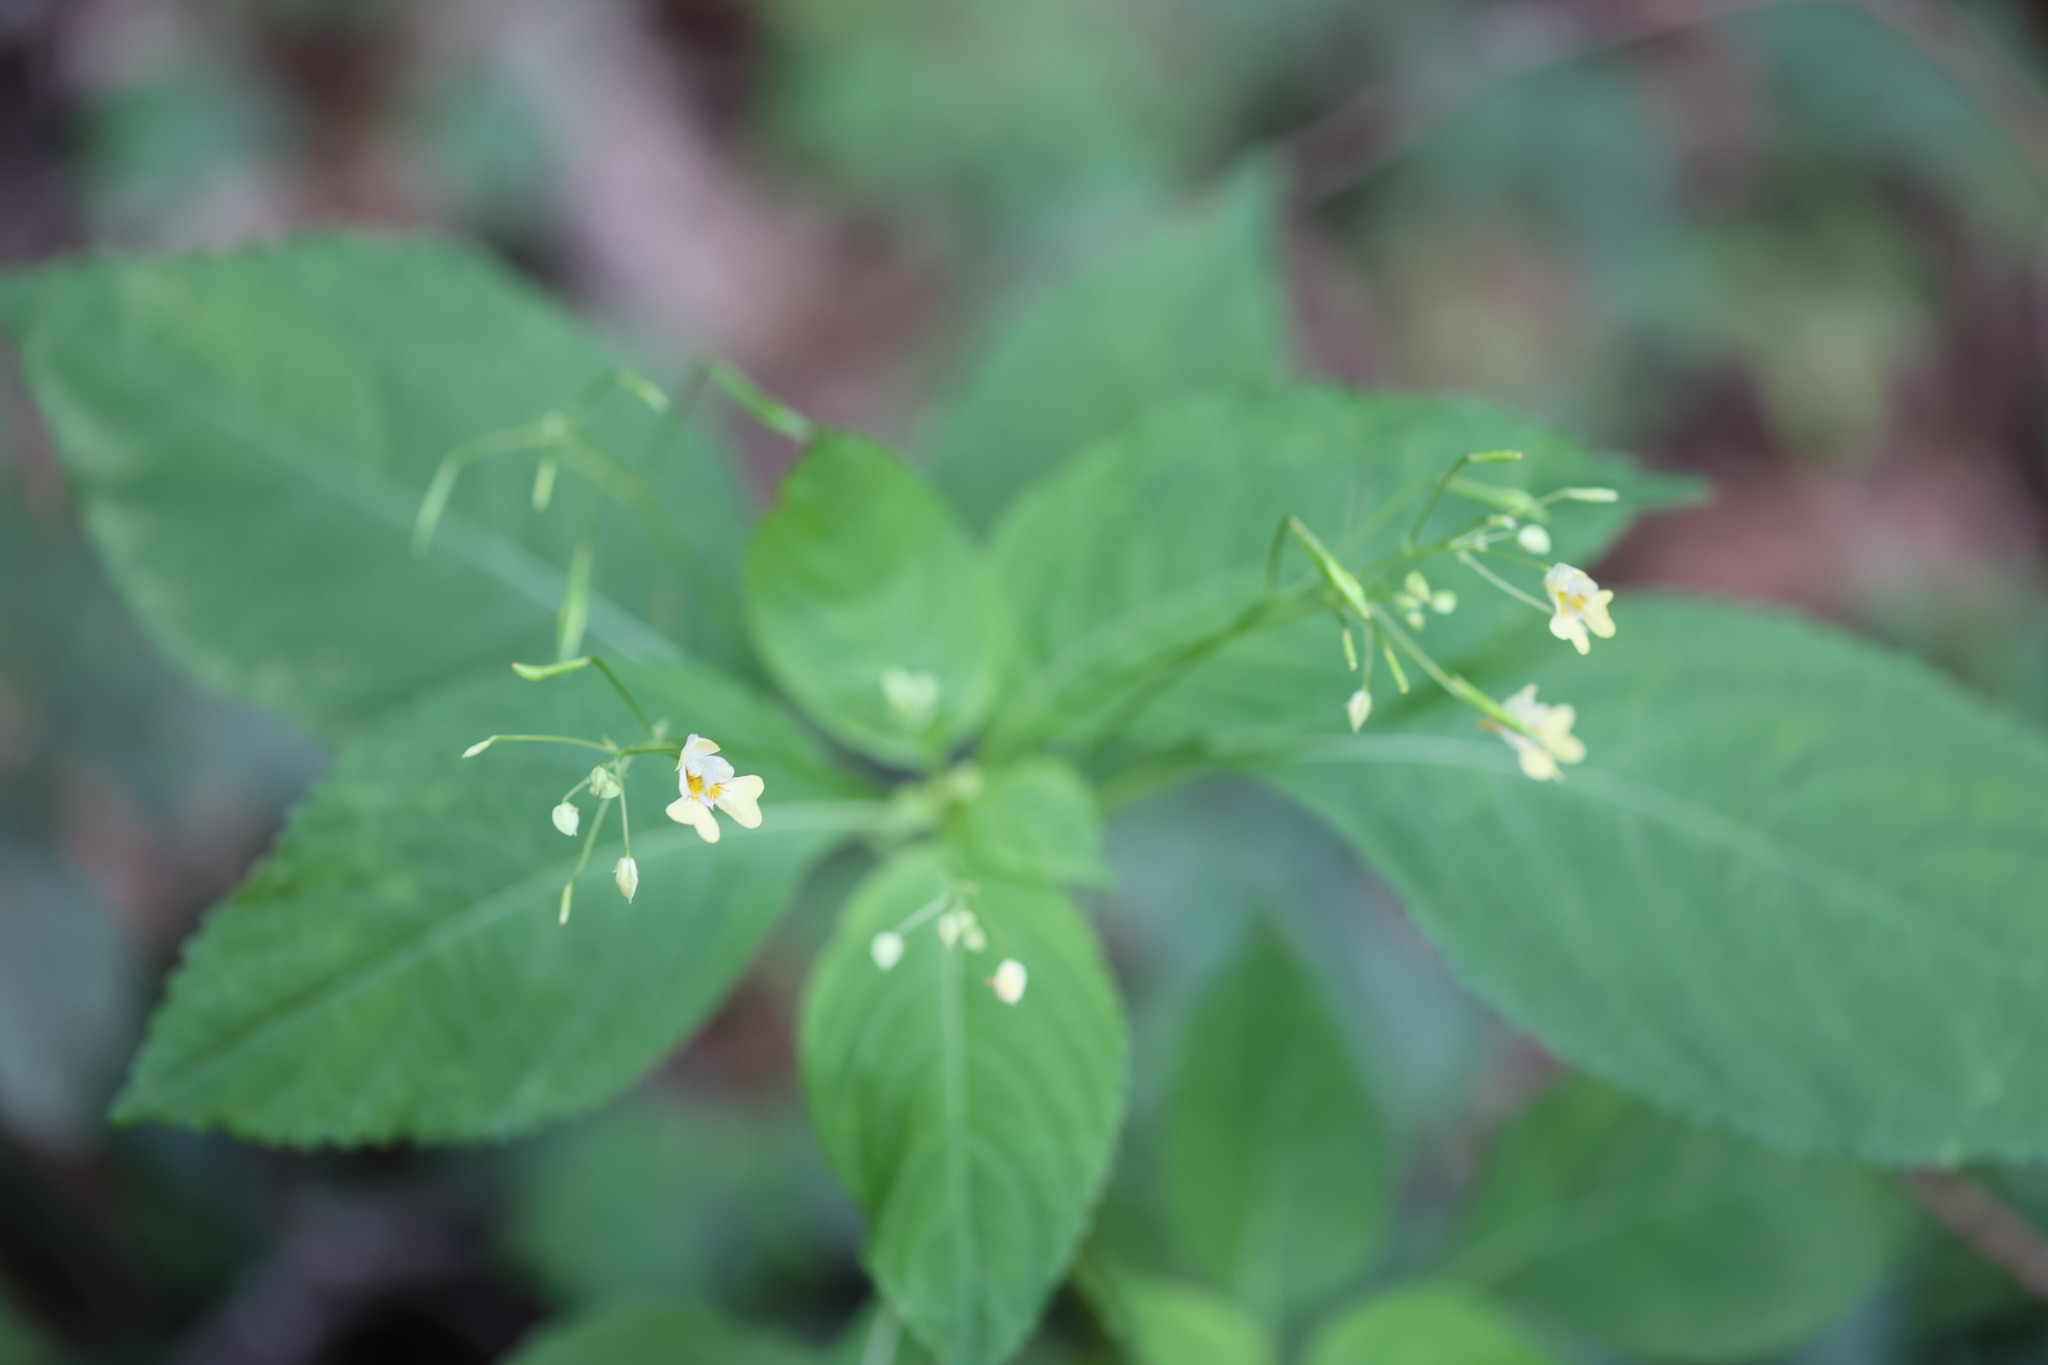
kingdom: Plantae
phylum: Tracheophyta
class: Magnoliopsida
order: Ericales
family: Balsaminaceae
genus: Impatiens
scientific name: Impatiens parviflora
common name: Small balsam
